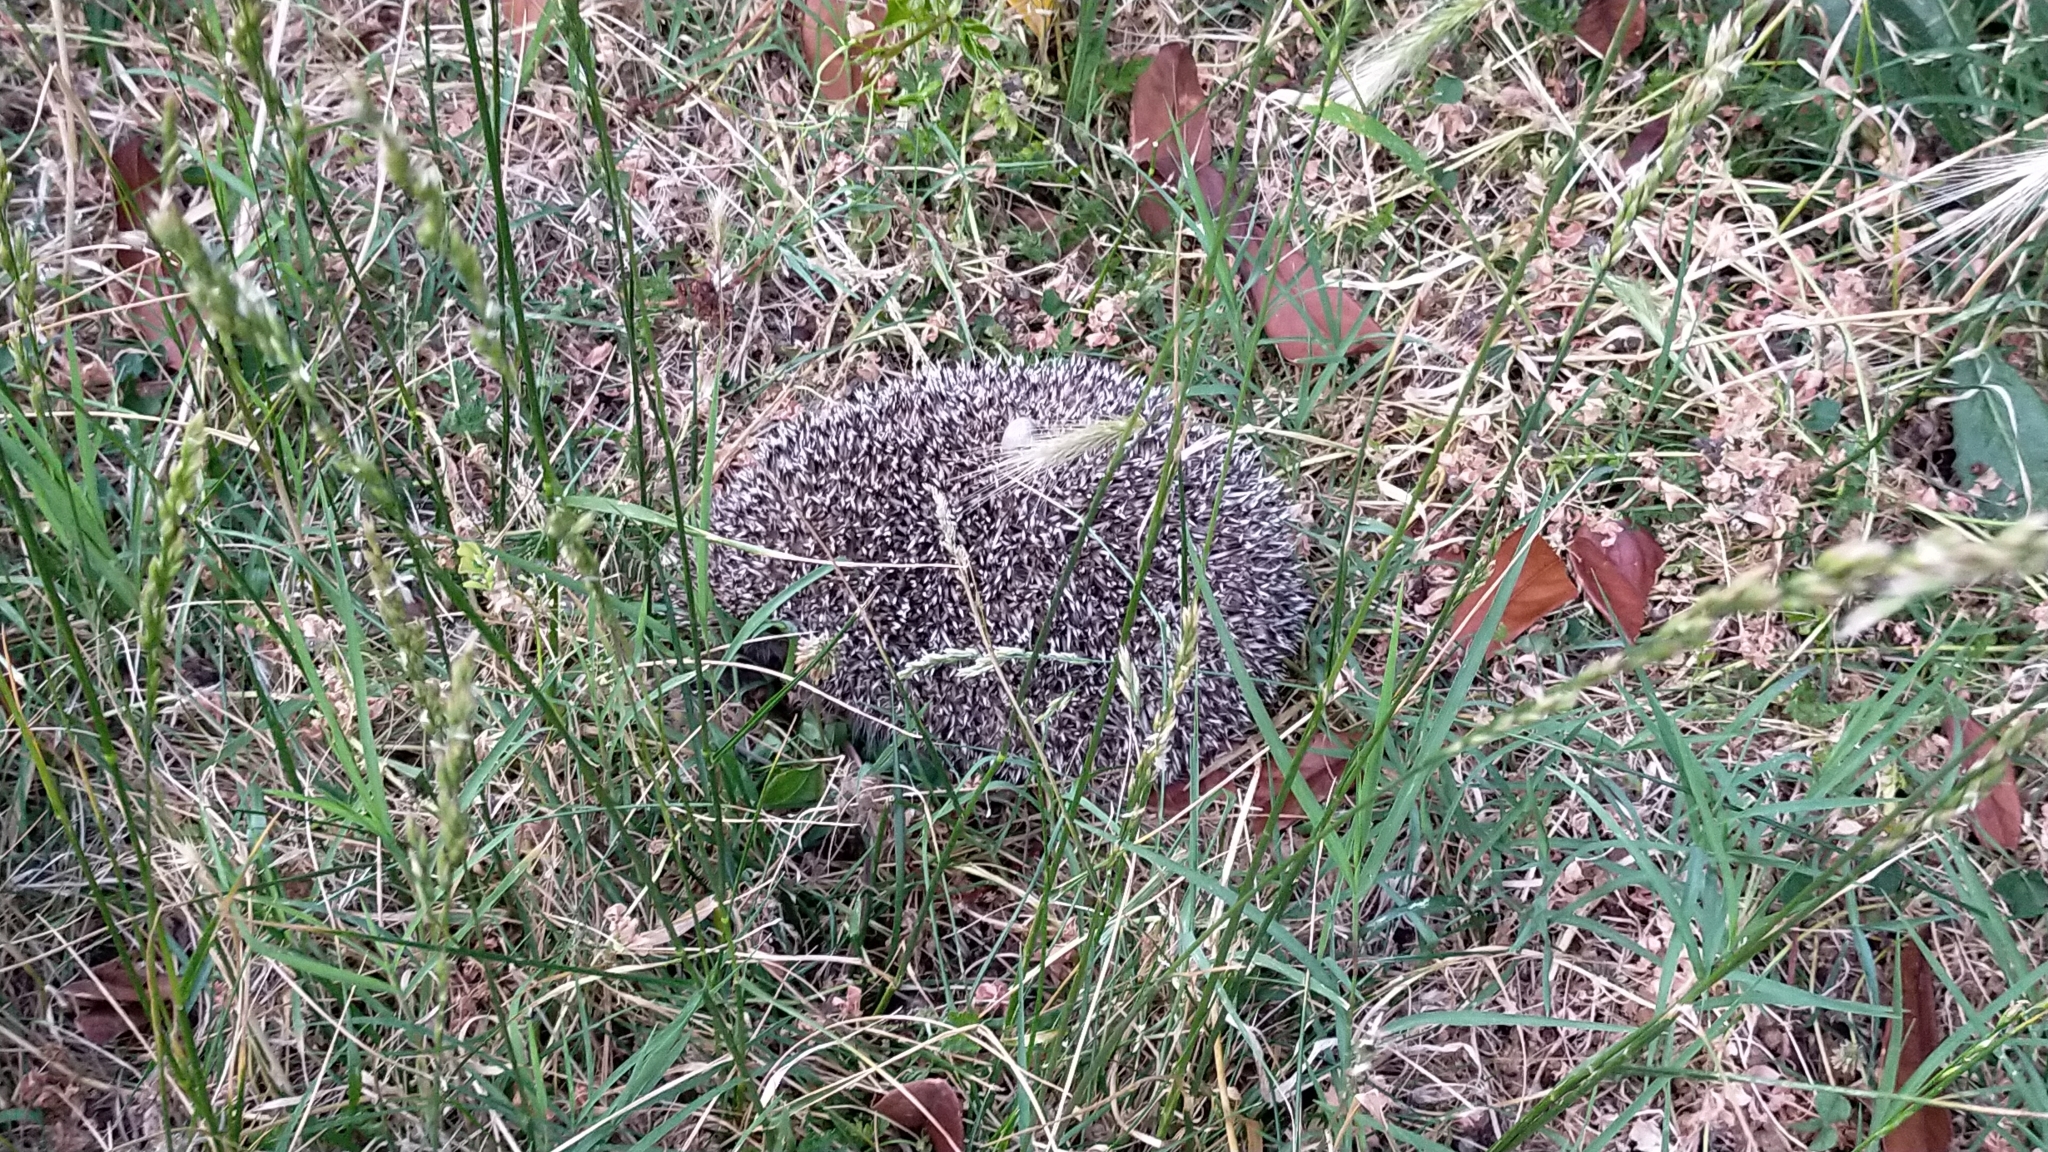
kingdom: Animalia
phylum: Chordata
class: Mammalia
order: Erinaceomorpha
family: Erinaceidae
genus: Erinaceus
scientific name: Erinaceus roumanicus
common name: Northern white-breasted hedgehog
